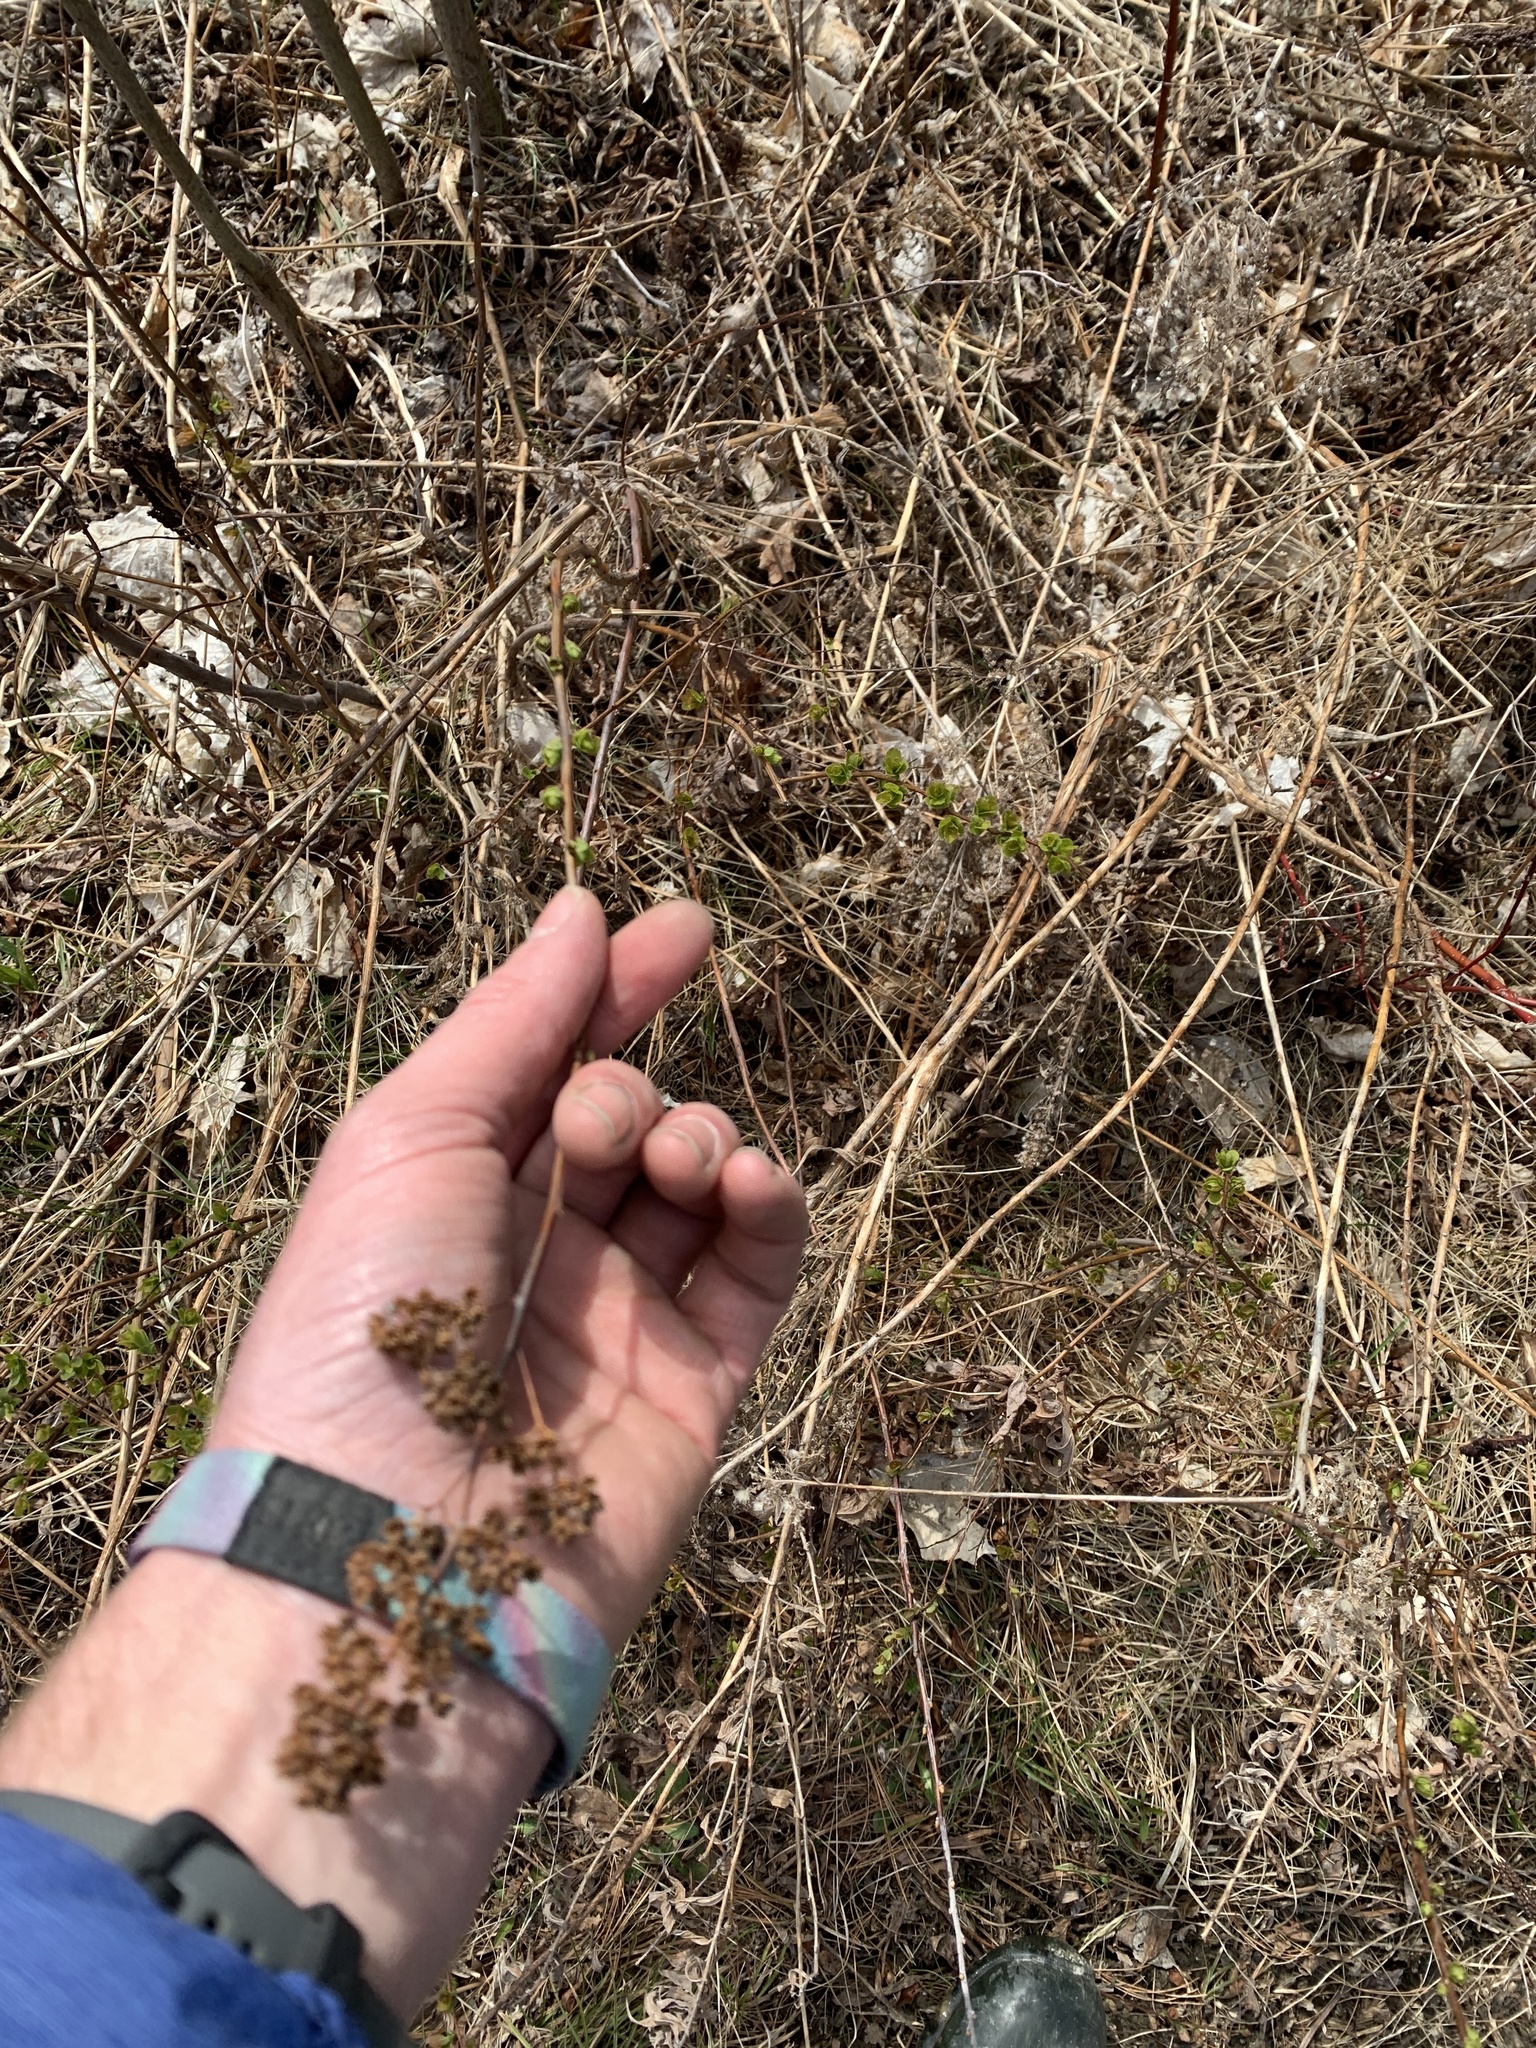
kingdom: Plantae
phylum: Tracheophyta
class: Magnoliopsida
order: Rosales
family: Rosaceae
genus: Spiraea
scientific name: Spiraea alba
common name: Pale bridewort
